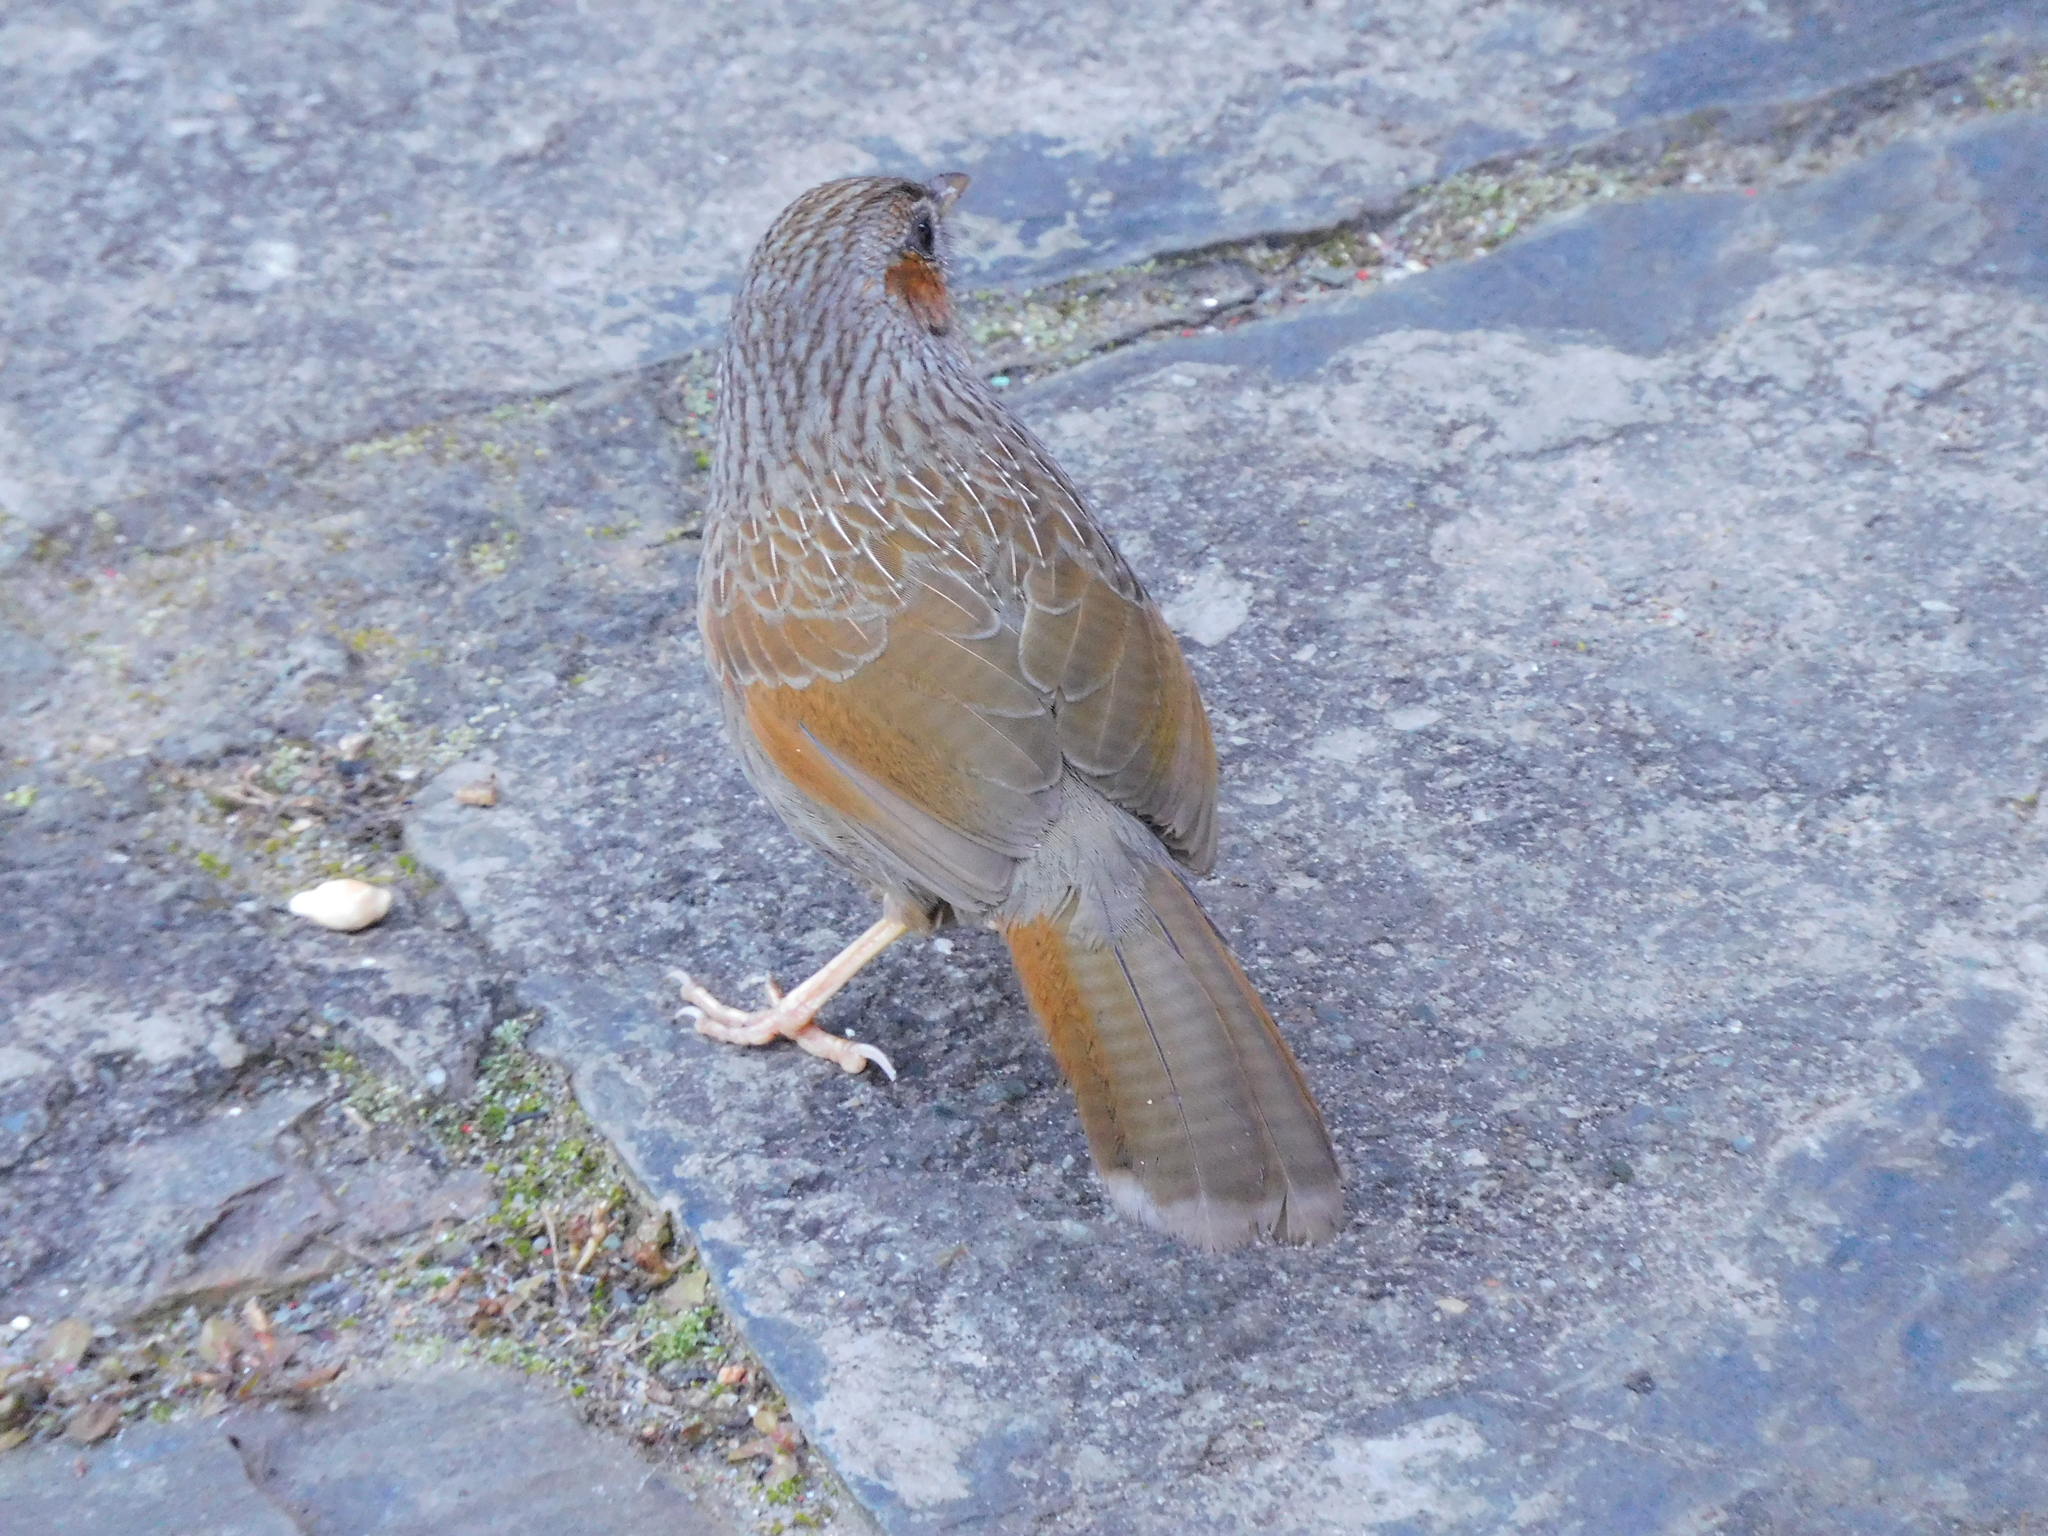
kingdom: Animalia
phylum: Chordata
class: Aves
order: Passeriformes
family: Leiothrichidae
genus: Trochalopteron
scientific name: Trochalopteron lineatum
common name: Streaked laughingthrush
